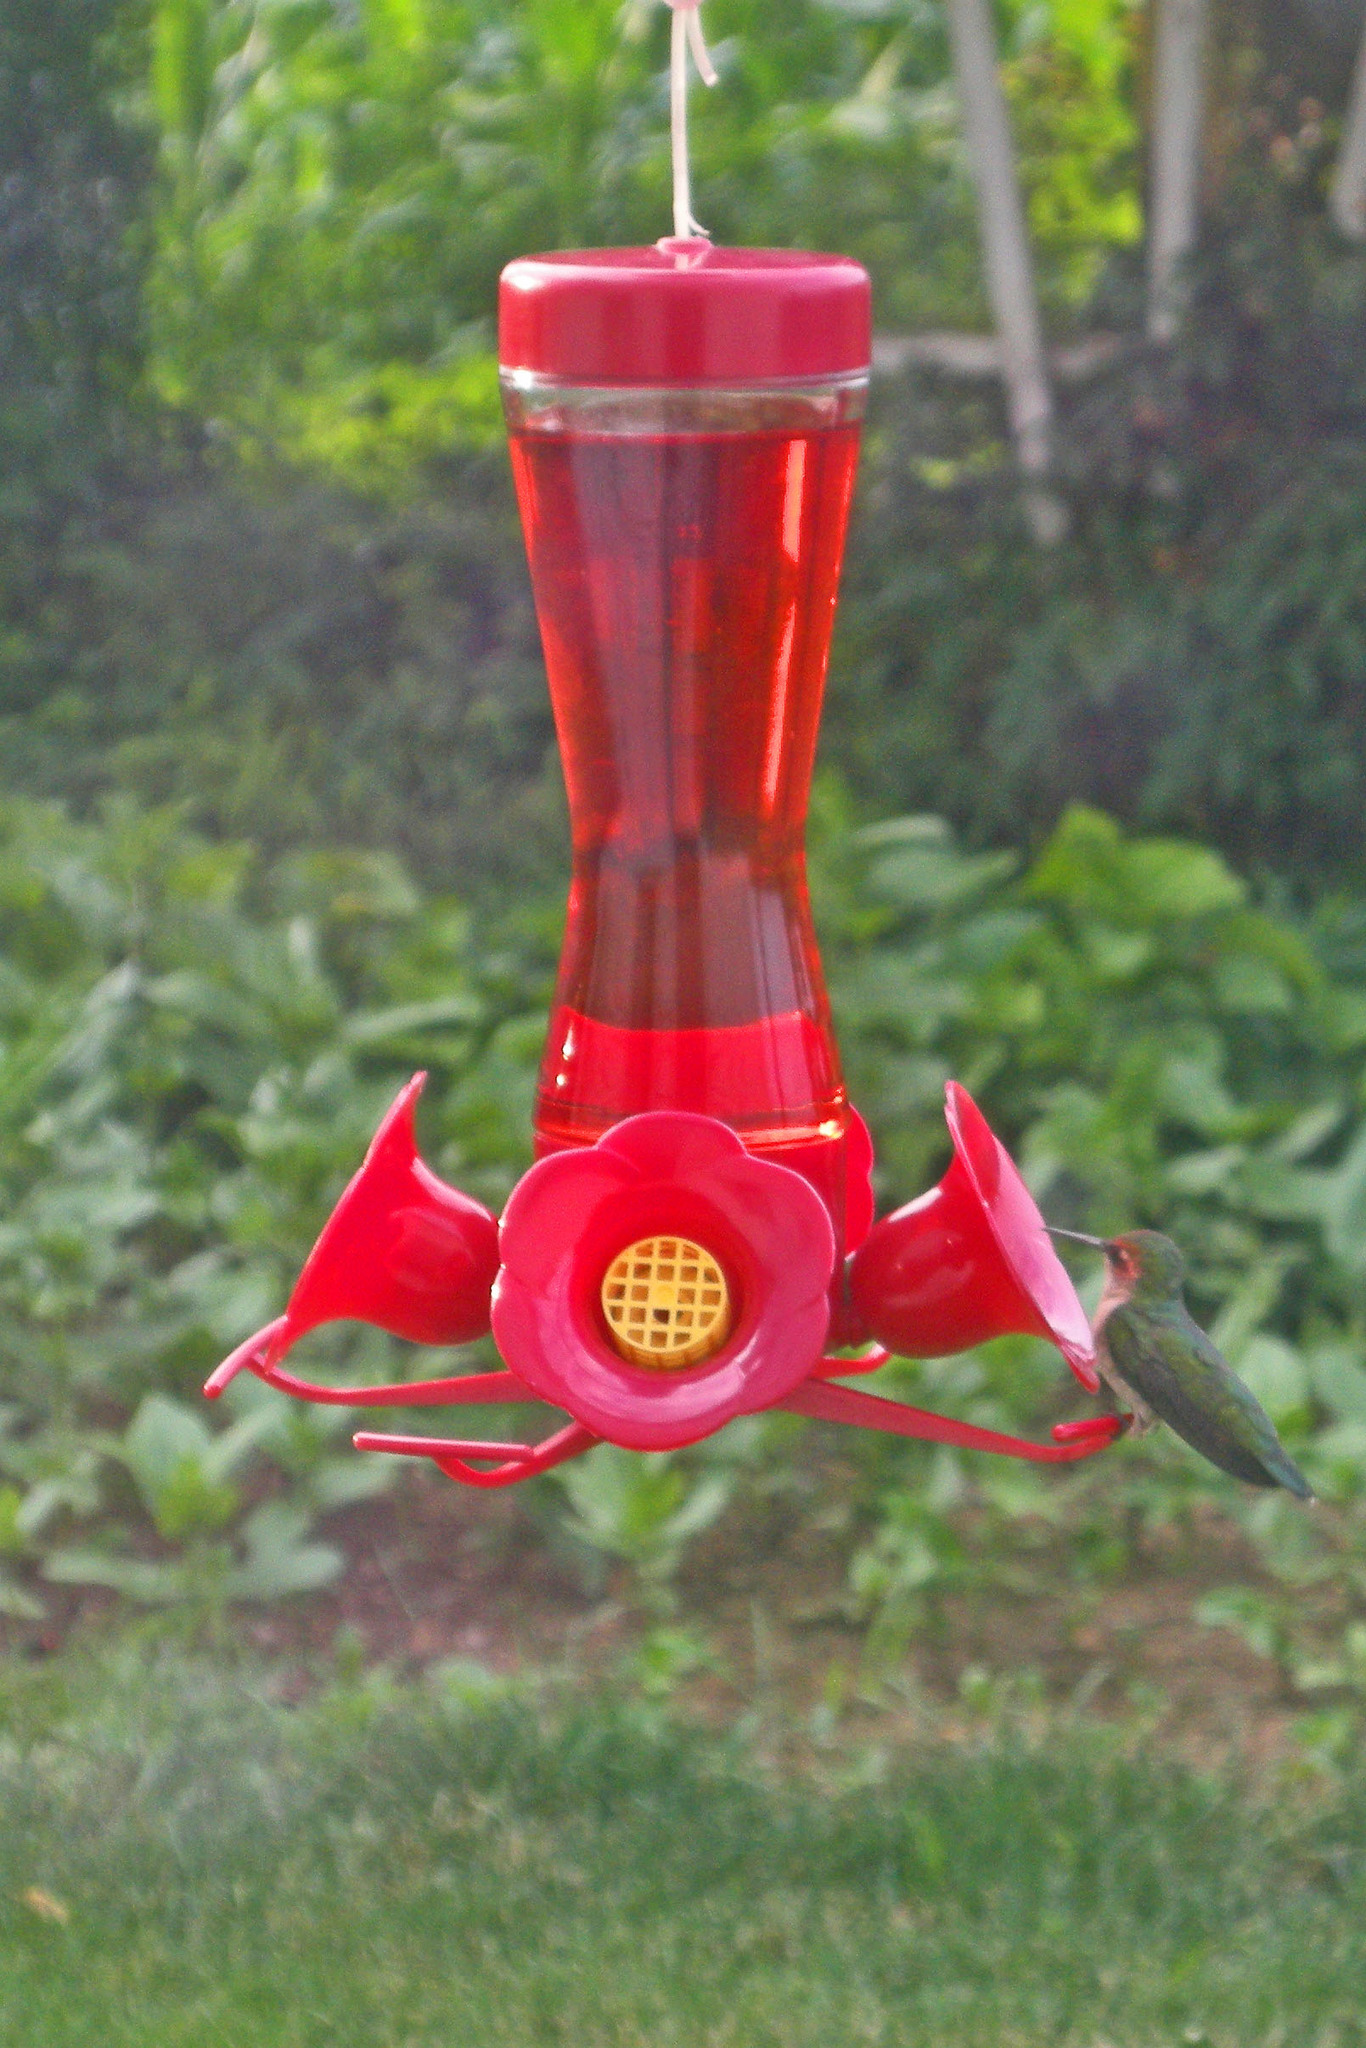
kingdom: Animalia
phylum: Chordata
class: Aves
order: Apodiformes
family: Trochilidae
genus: Archilochus
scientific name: Archilochus colubris
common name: Ruby-throated hummingbird
